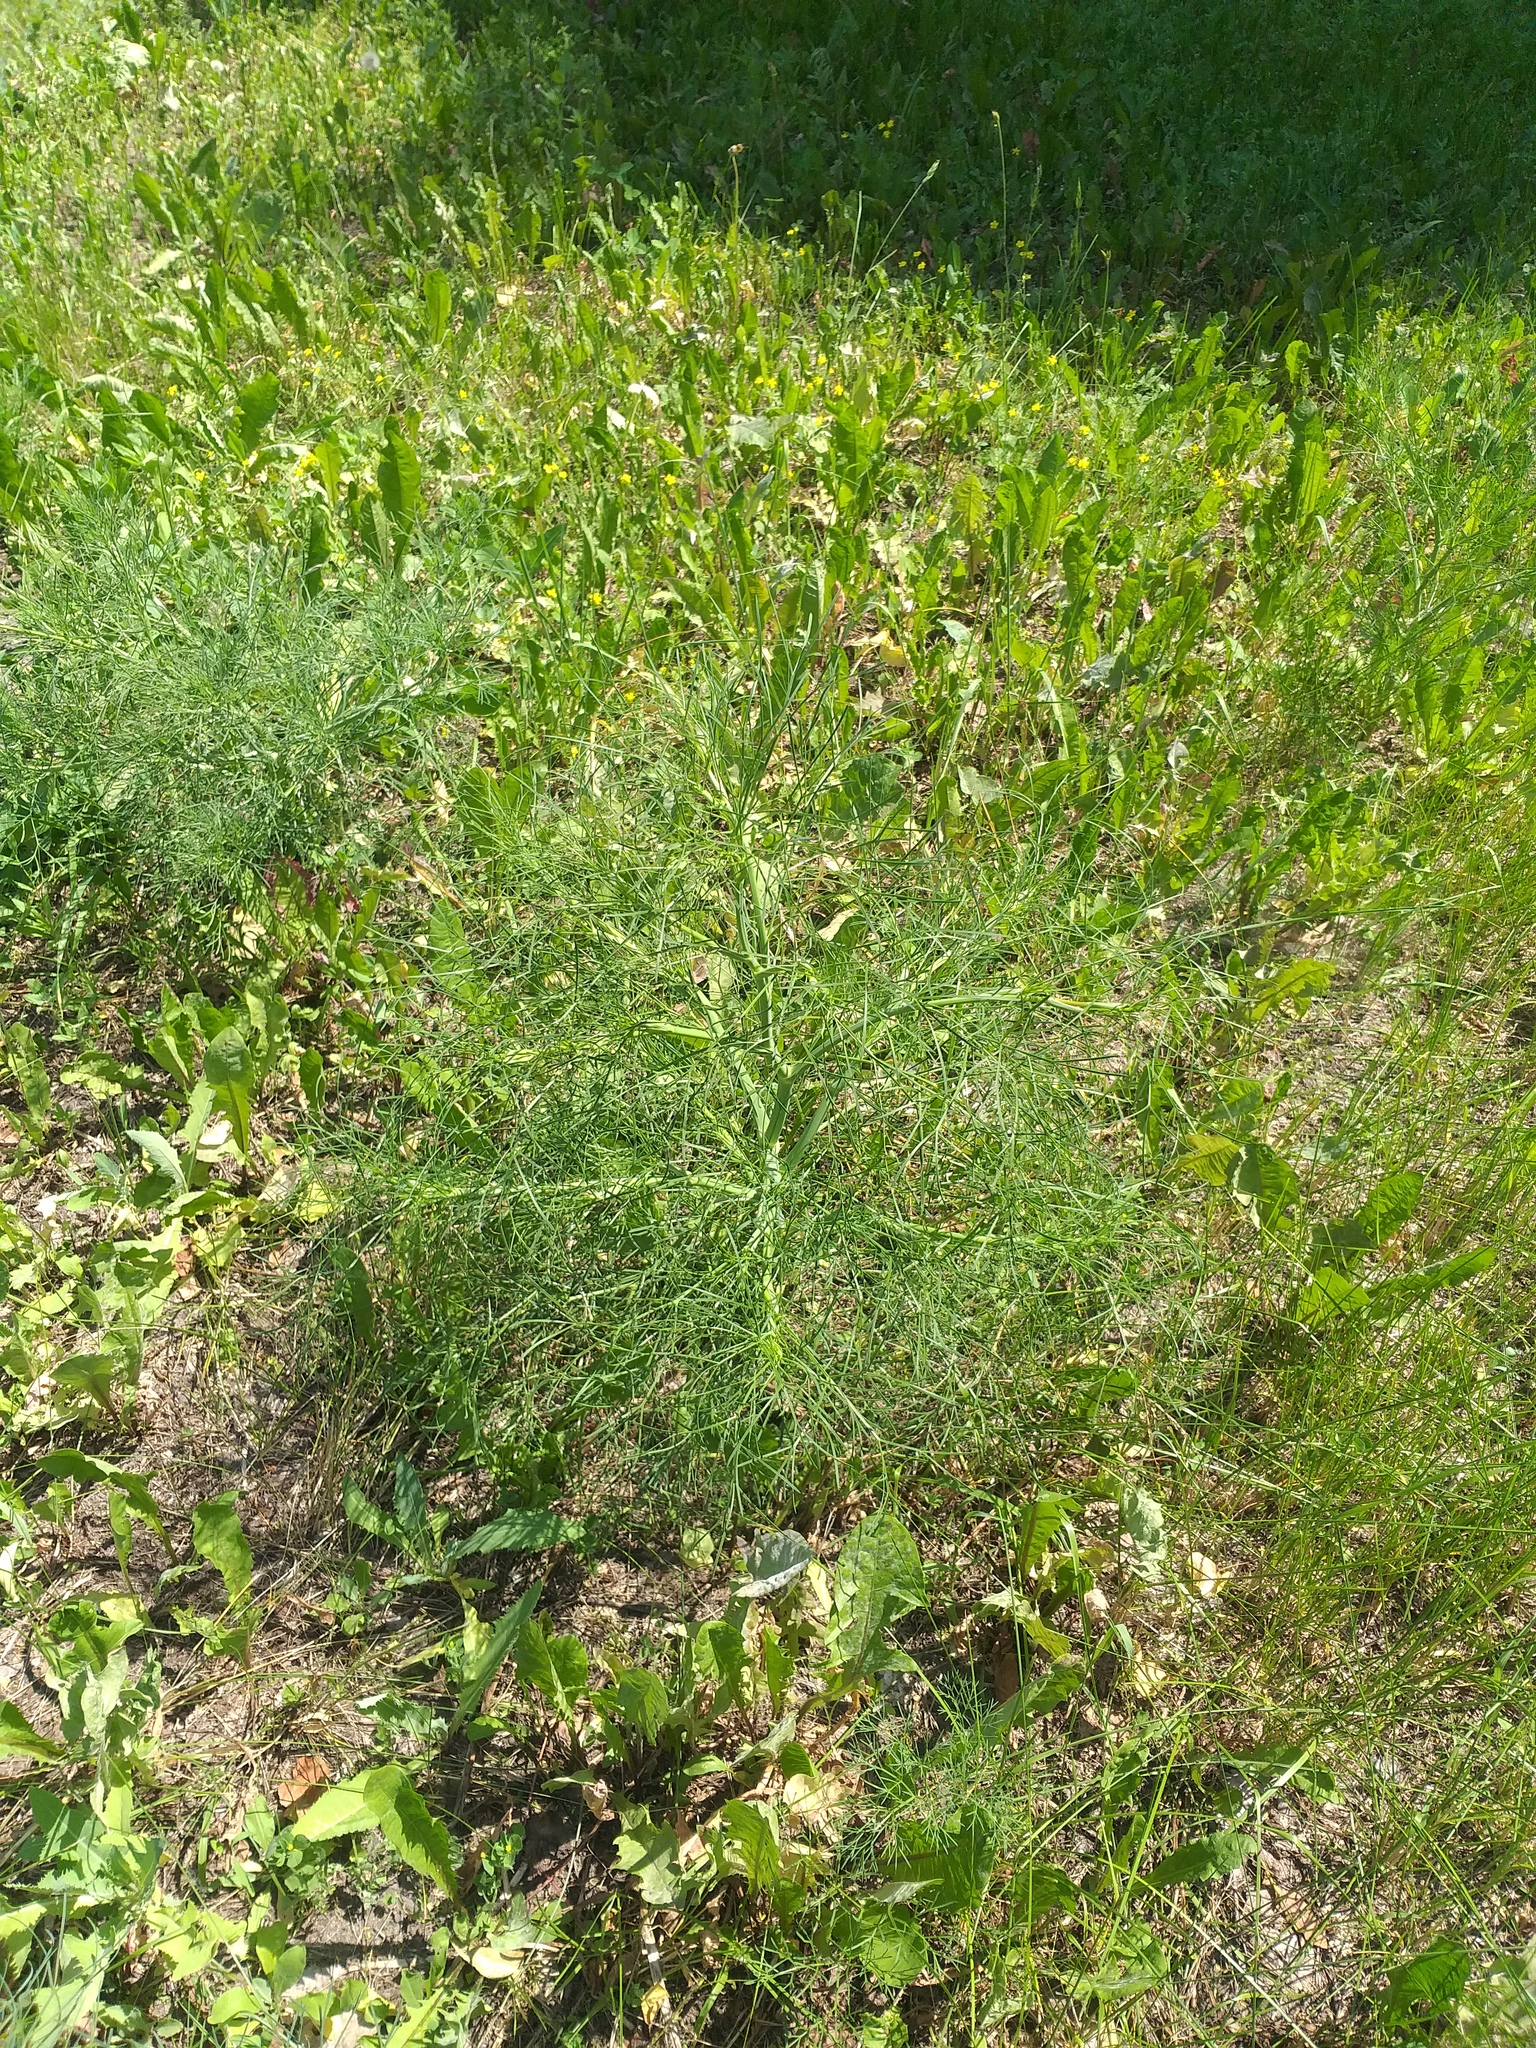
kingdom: Plantae
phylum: Tracheophyta
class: Magnoliopsida
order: Apiales
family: Apiaceae
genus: Seseli
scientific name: Seseli arenarium
